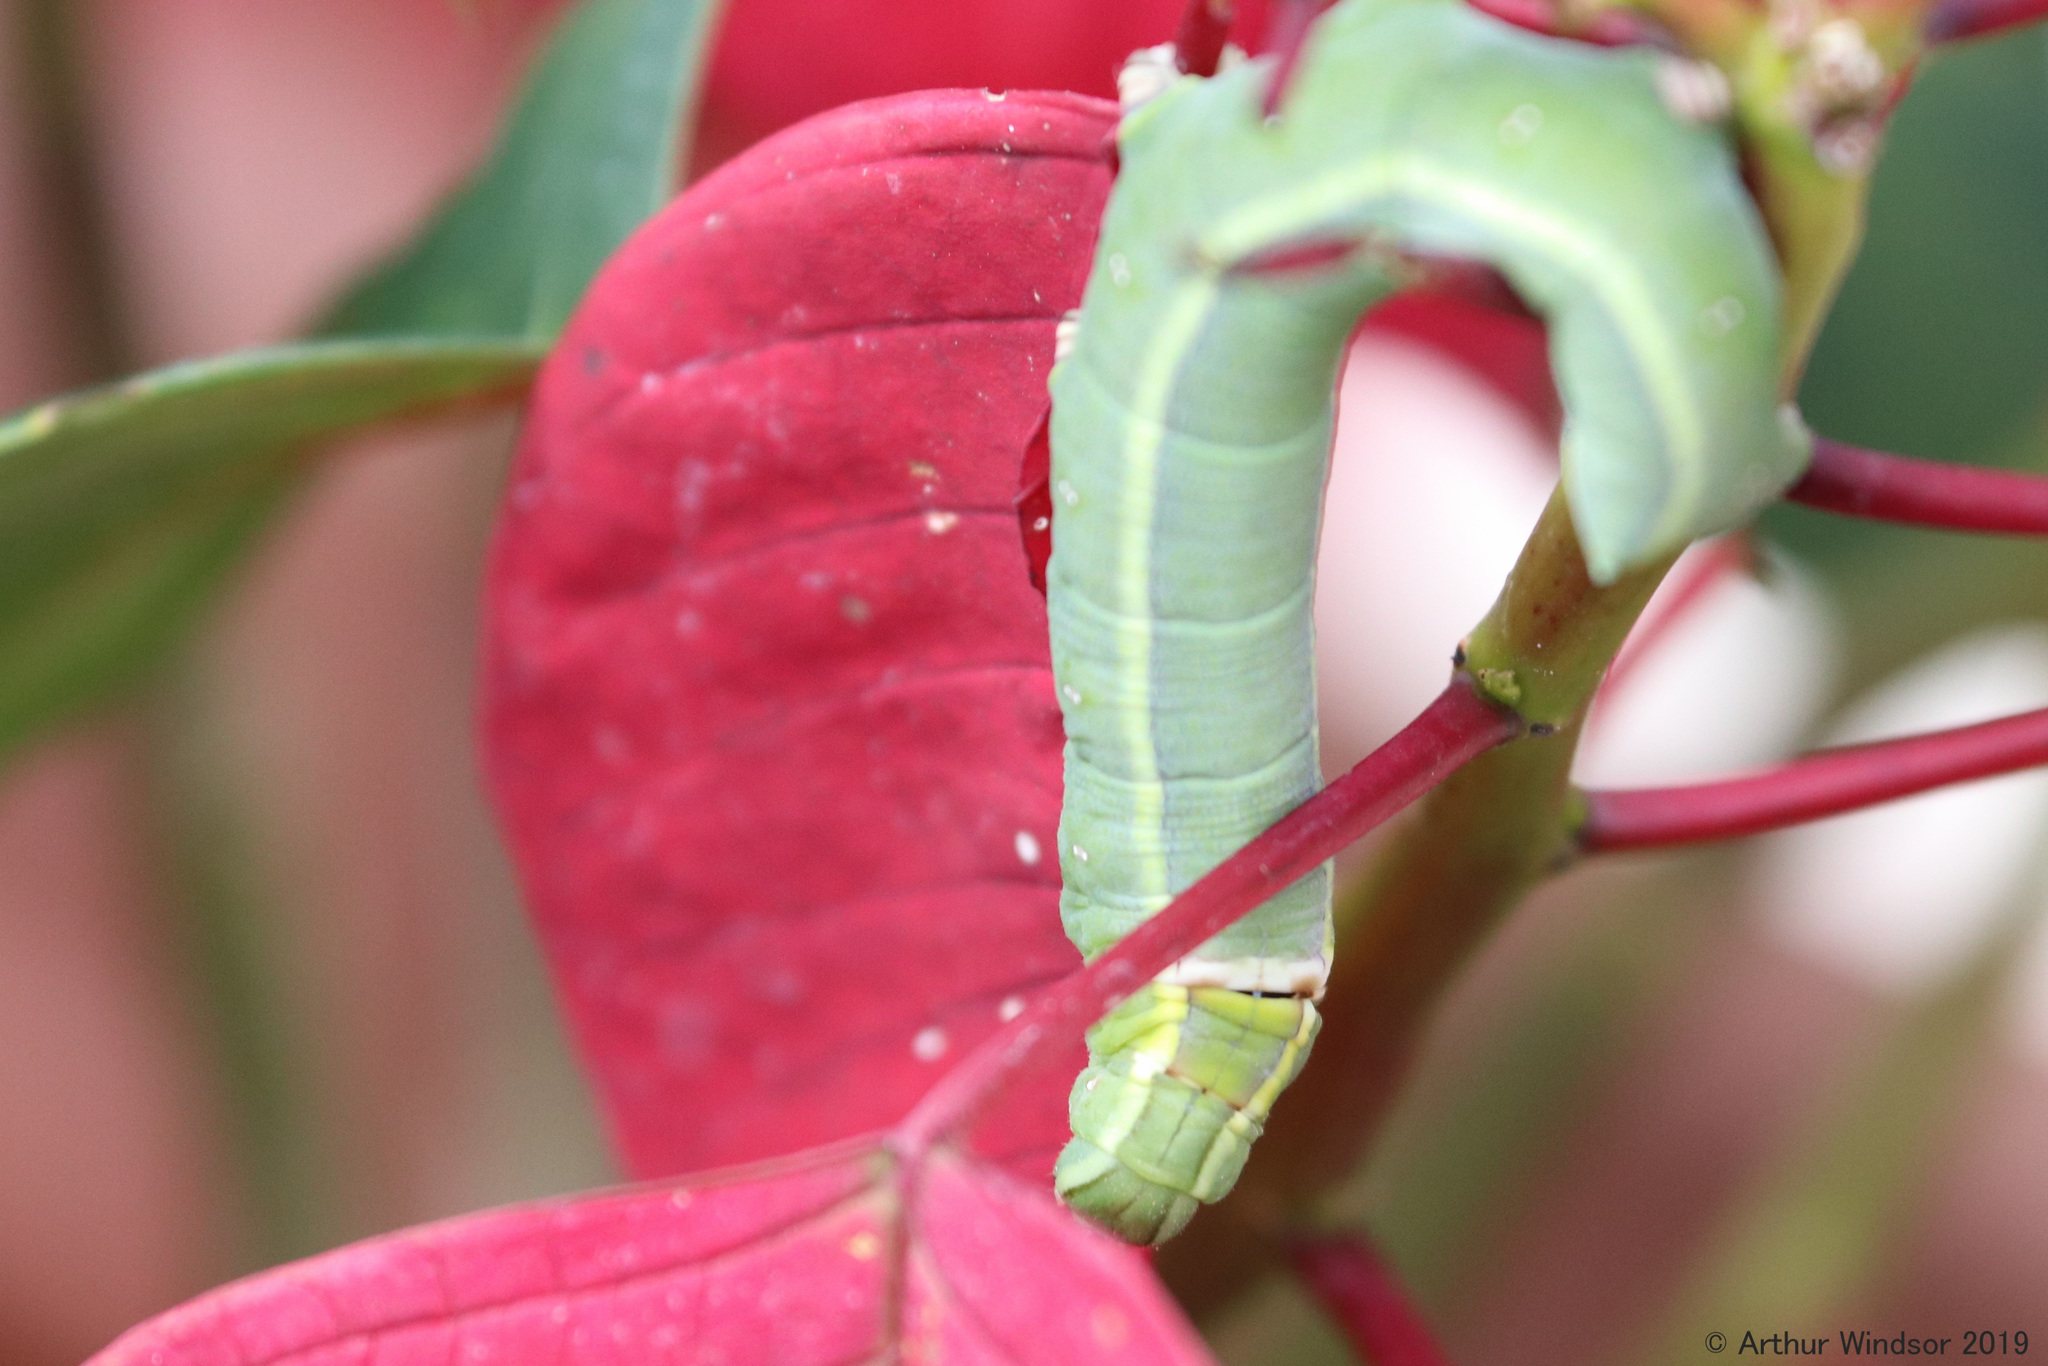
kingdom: Animalia
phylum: Arthropoda
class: Insecta
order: Lepidoptera
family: Sphingidae
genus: Erinnyis
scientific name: Erinnyis ello
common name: Ello sphinx
